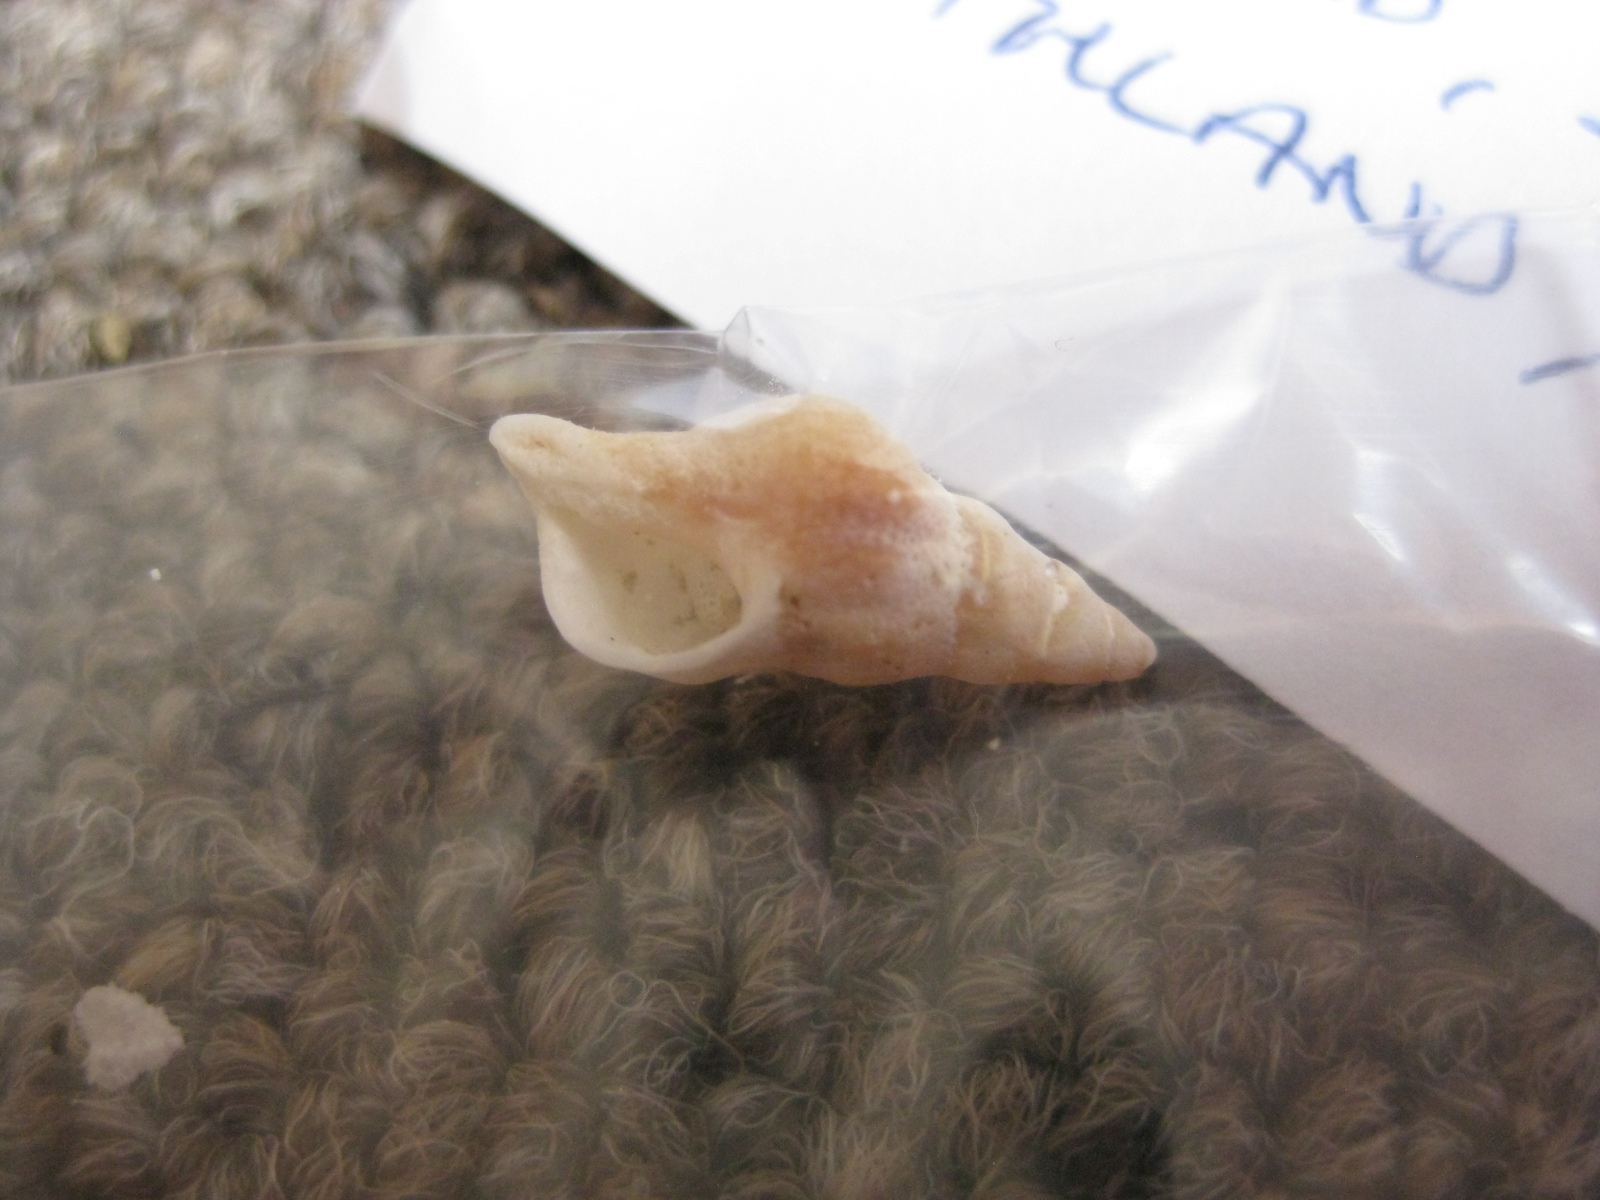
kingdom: Animalia
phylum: Mollusca
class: Gastropoda
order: Neogastropoda
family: Muricidae
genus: Lamellitrophon
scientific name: Lamellitrophon traversi
